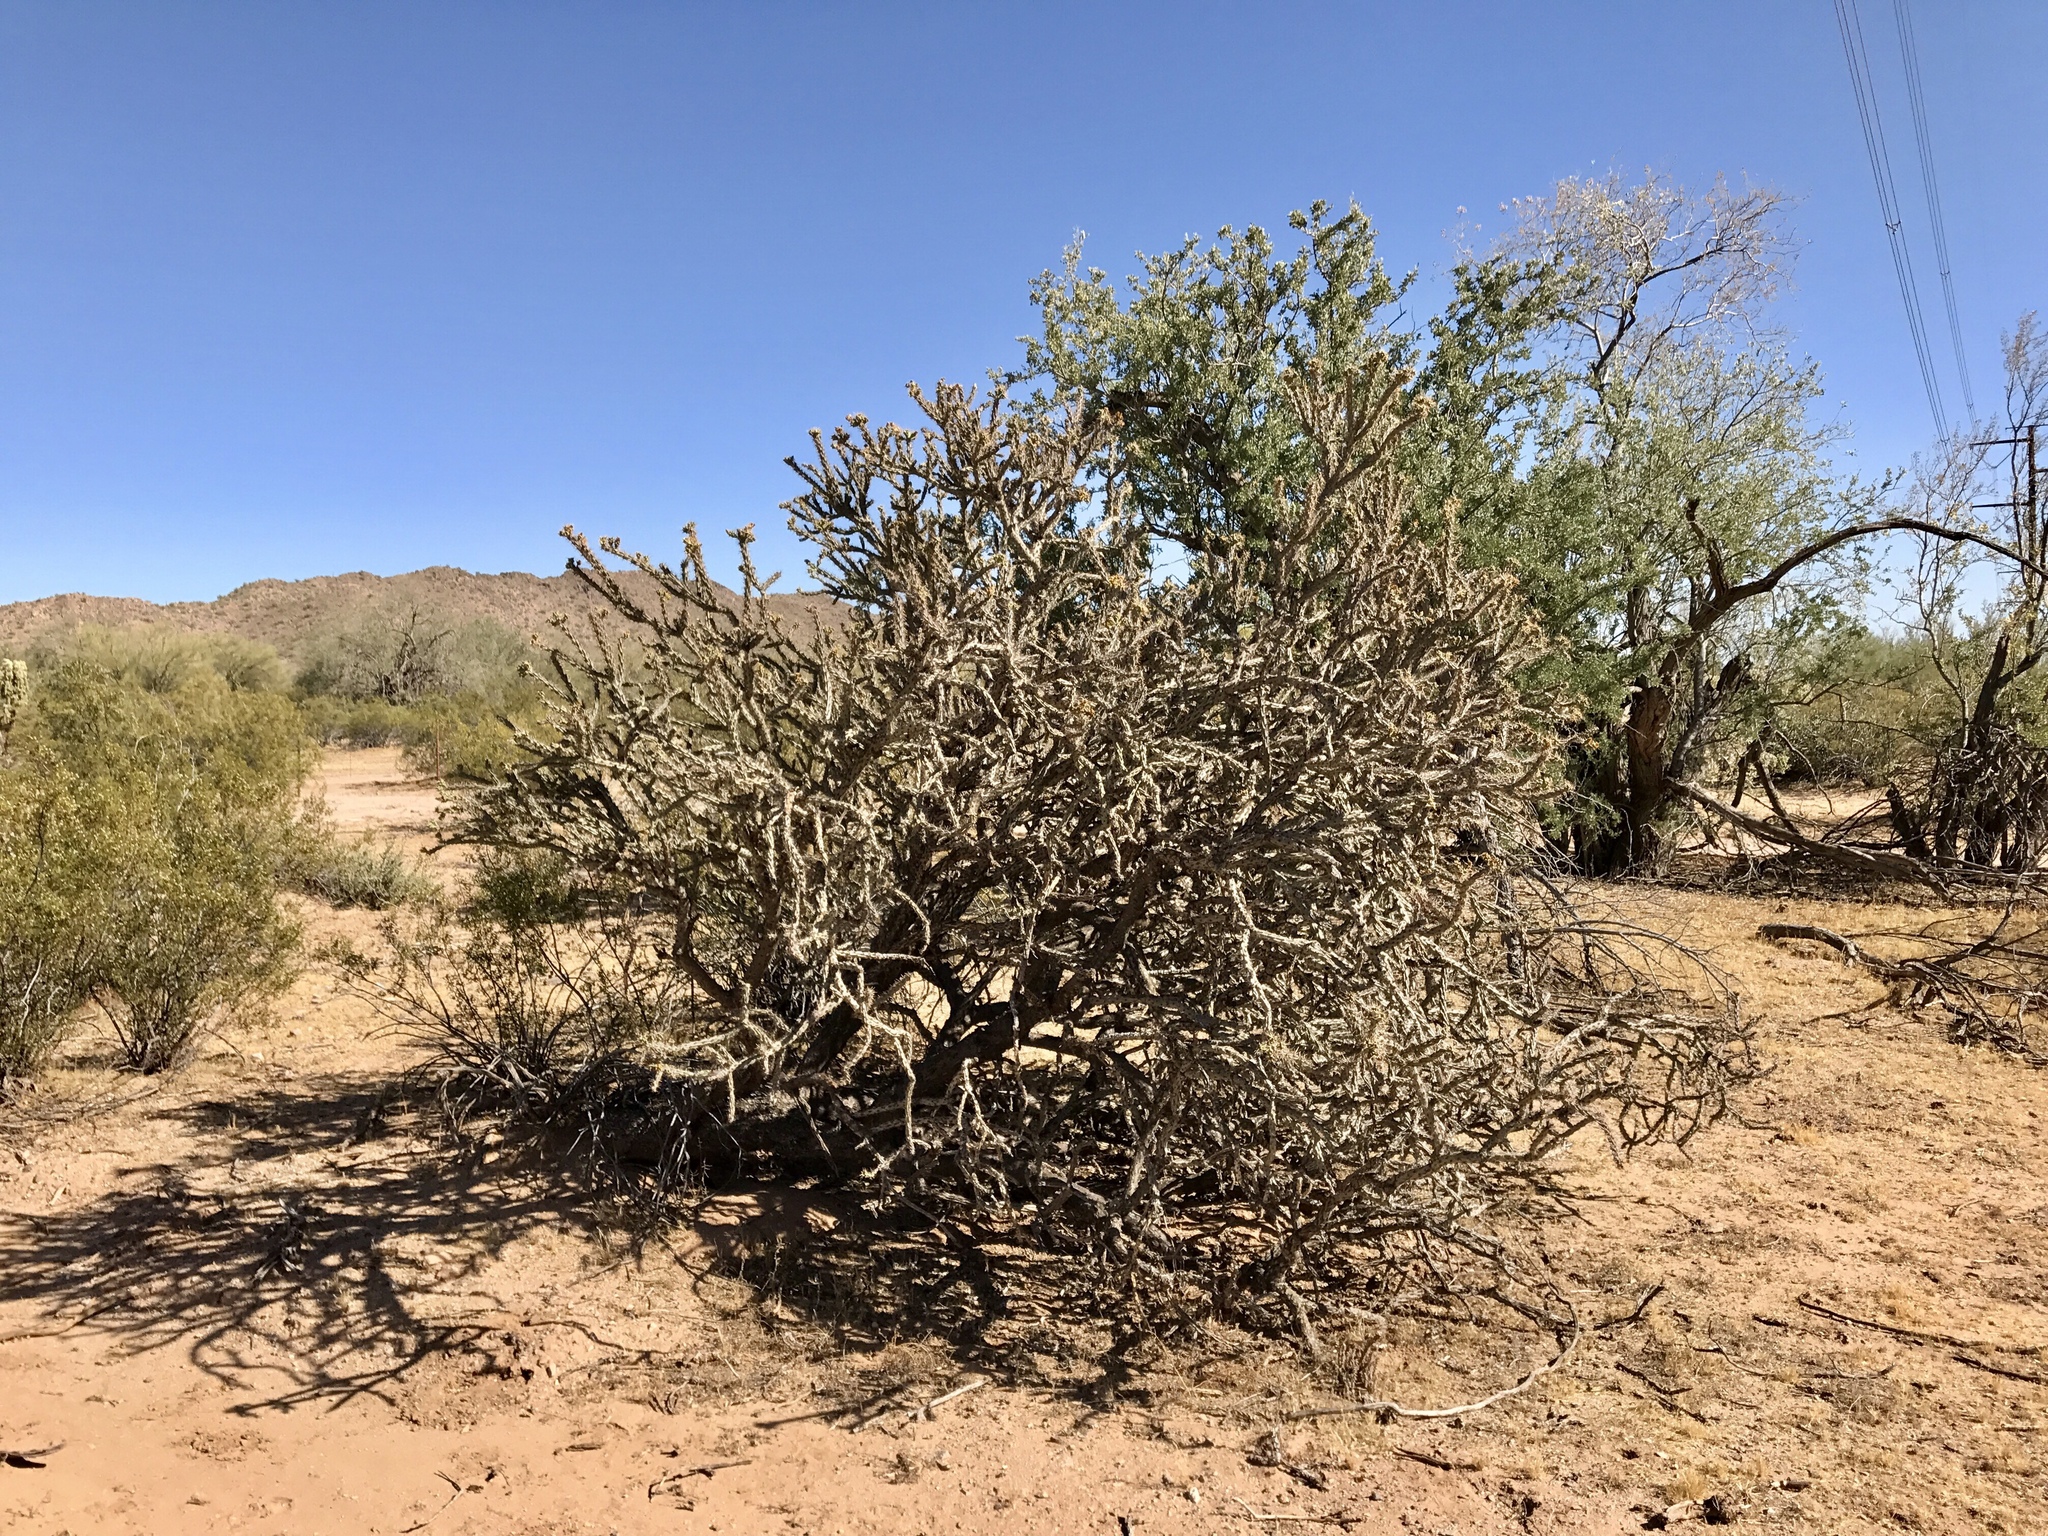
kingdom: Plantae
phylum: Tracheophyta
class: Magnoliopsida
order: Caryophyllales
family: Cactaceae
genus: Cylindropuntia
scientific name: Cylindropuntia acanthocarpa
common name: Buckhorn cholla
